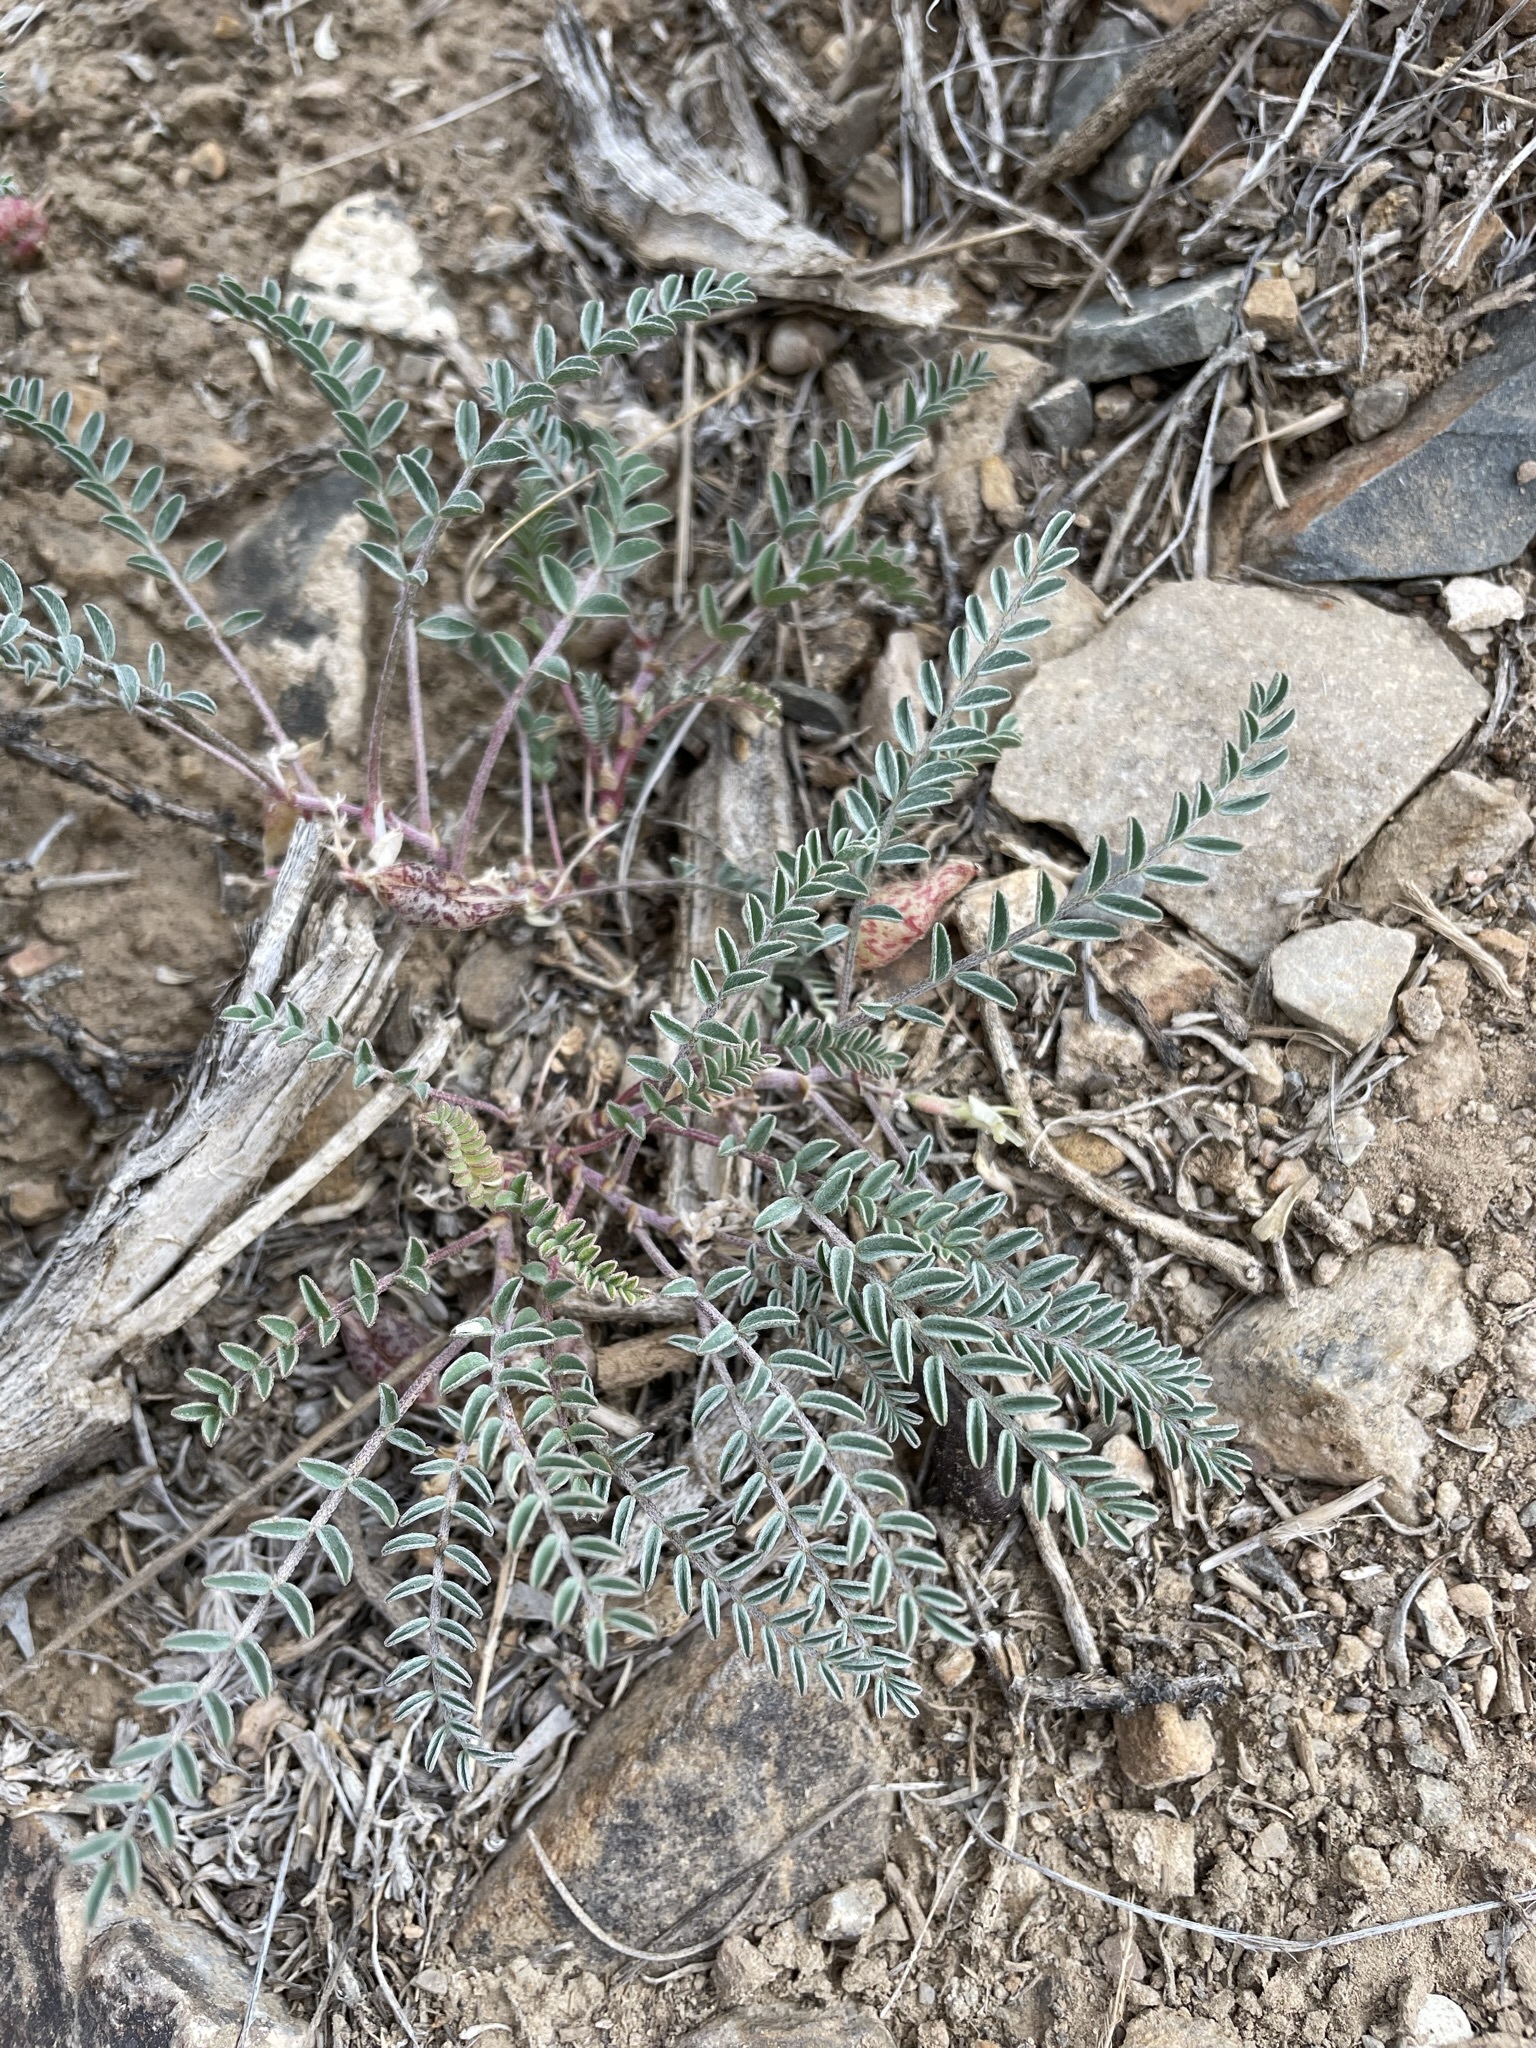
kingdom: Plantae
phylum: Tracheophyta
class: Magnoliopsida
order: Fabales
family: Fabaceae
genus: Astragalus
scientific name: Astragalus lentiginosus
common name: Freckled milkvetch
